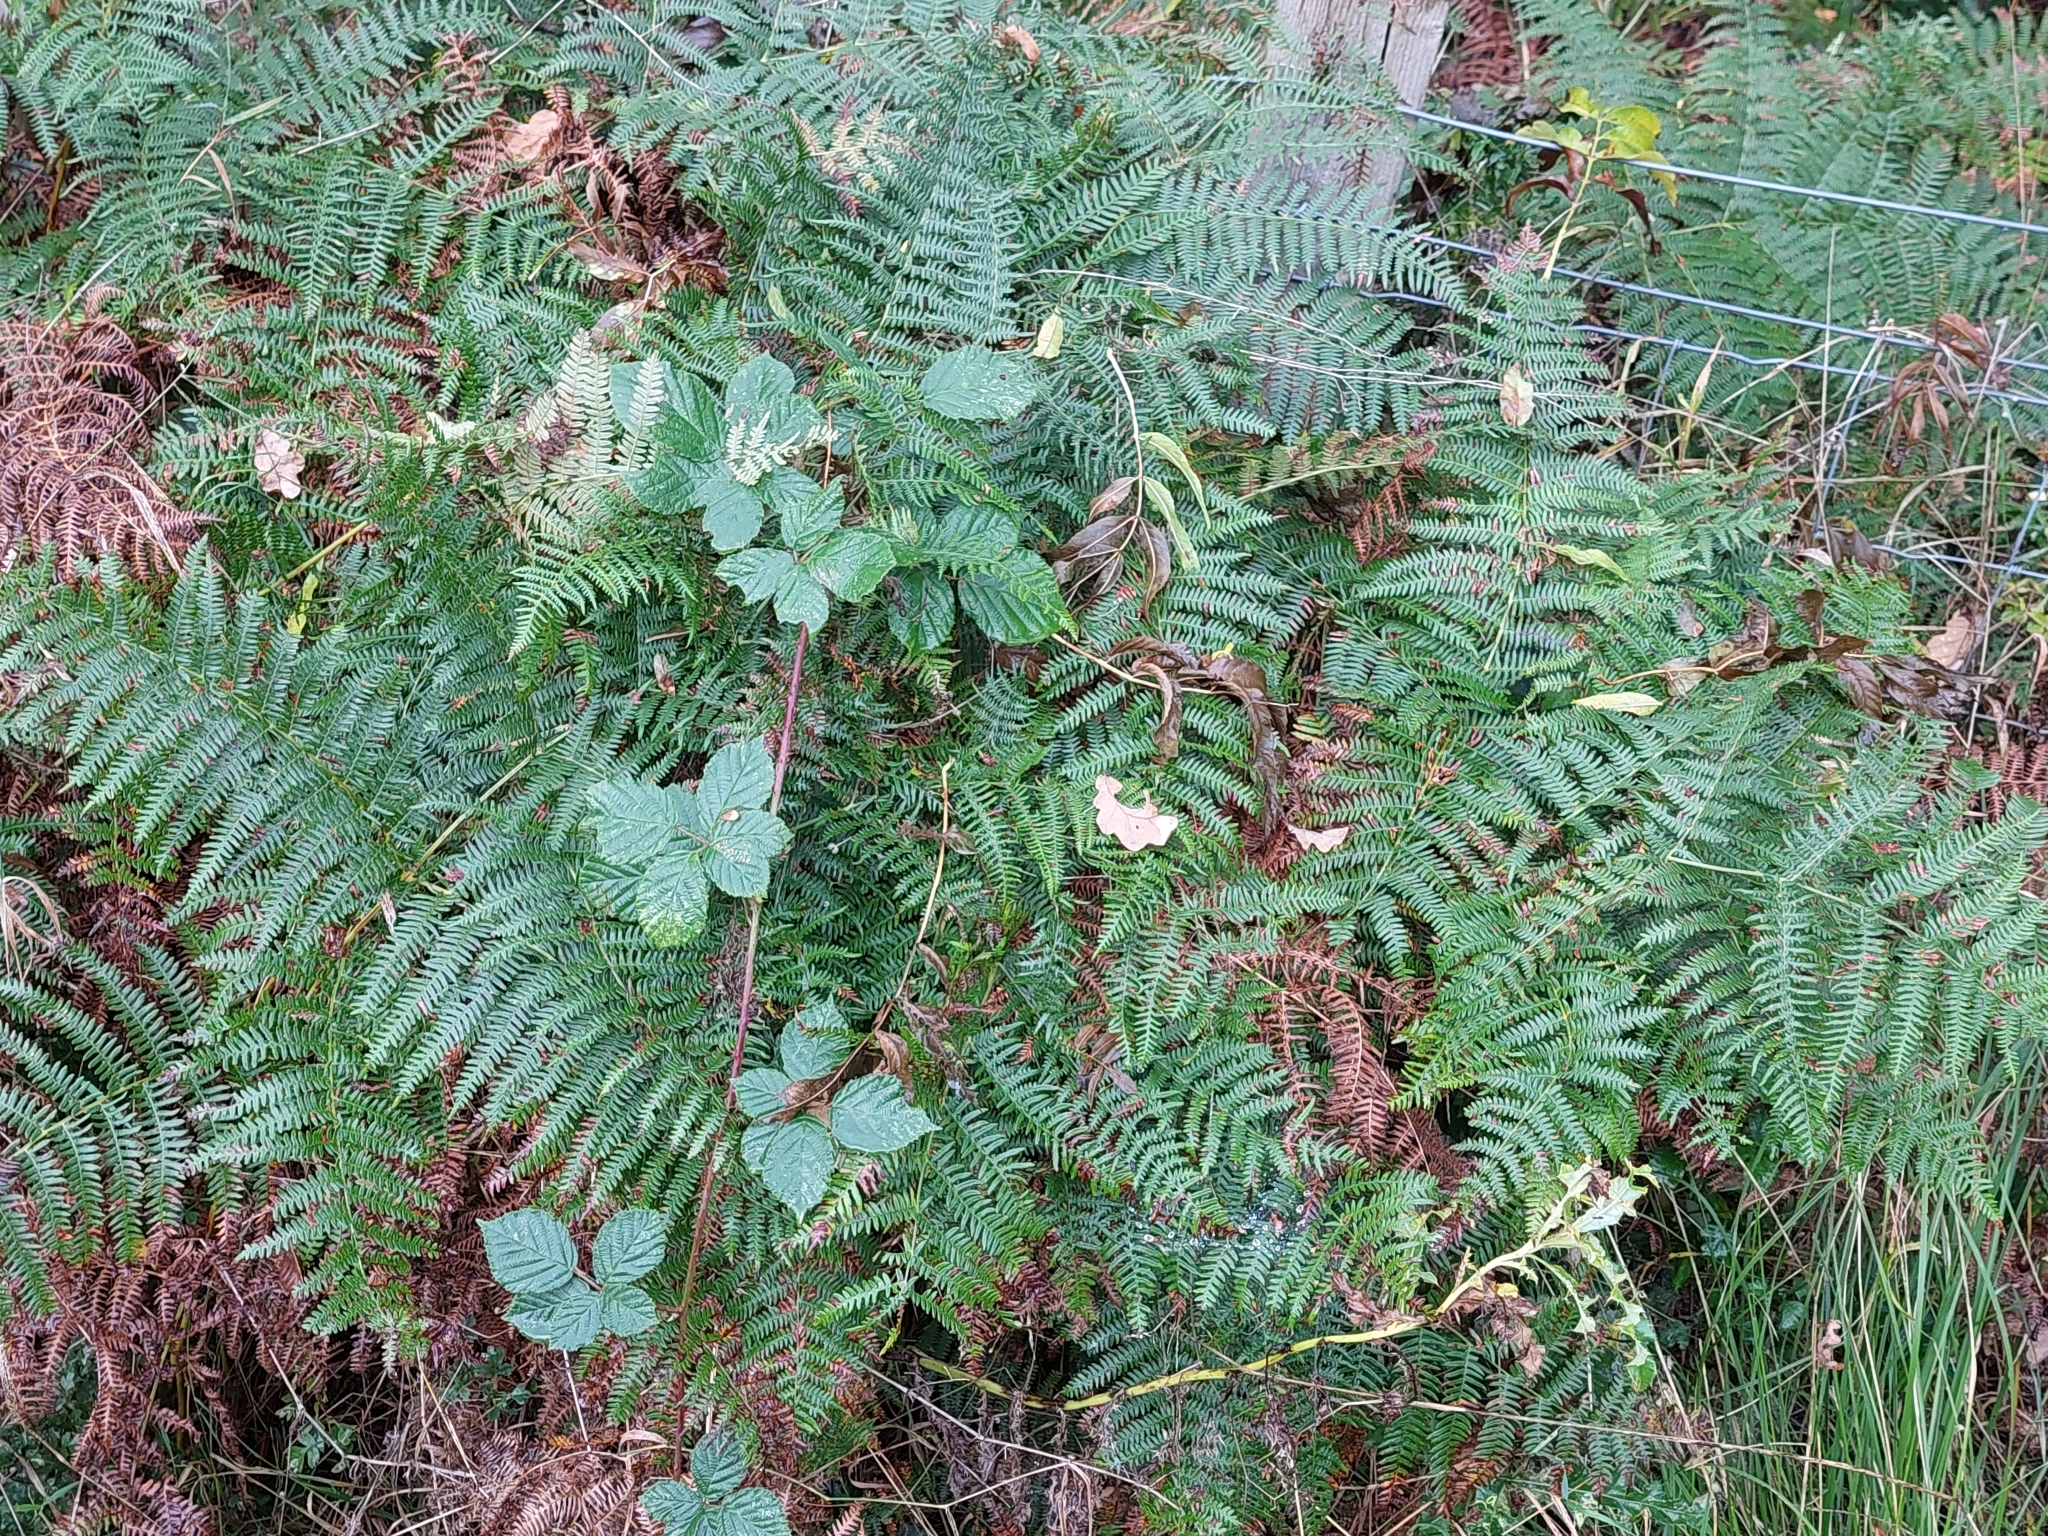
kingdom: Plantae
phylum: Tracheophyta
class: Polypodiopsida
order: Polypodiales
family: Dennstaedtiaceae
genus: Pteridium
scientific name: Pteridium aquilinum
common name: Bracken
